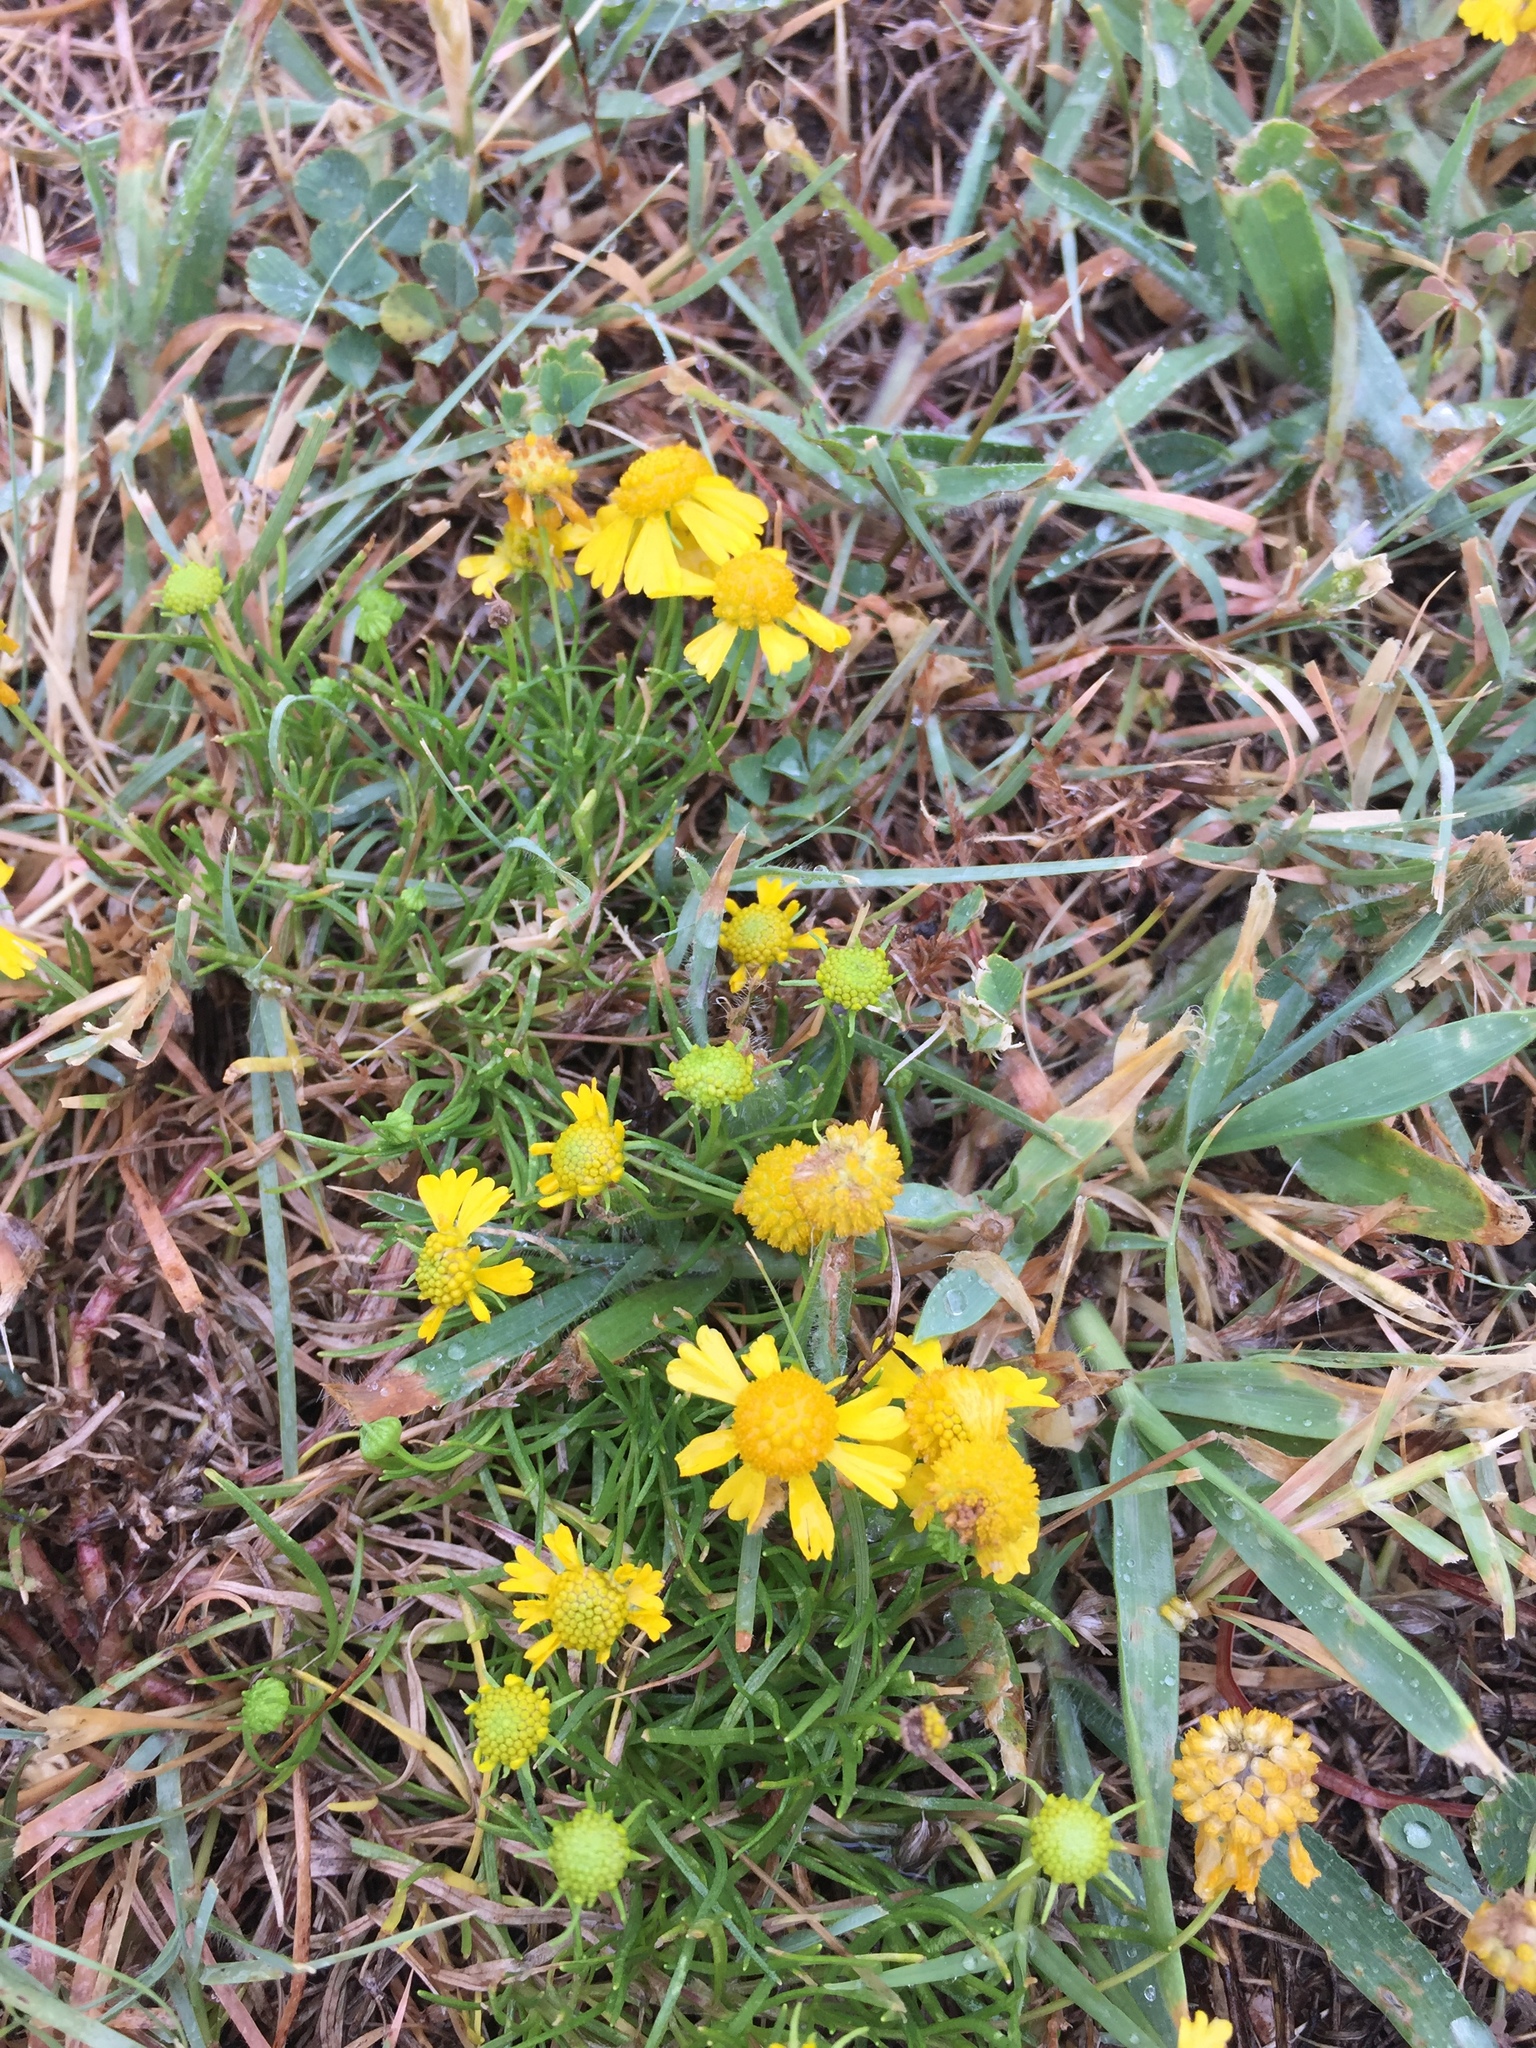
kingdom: Plantae
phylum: Tracheophyta
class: Magnoliopsida
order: Asterales
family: Asteraceae
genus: Helenium
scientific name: Helenium amarum
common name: Bitter sneezeweed
